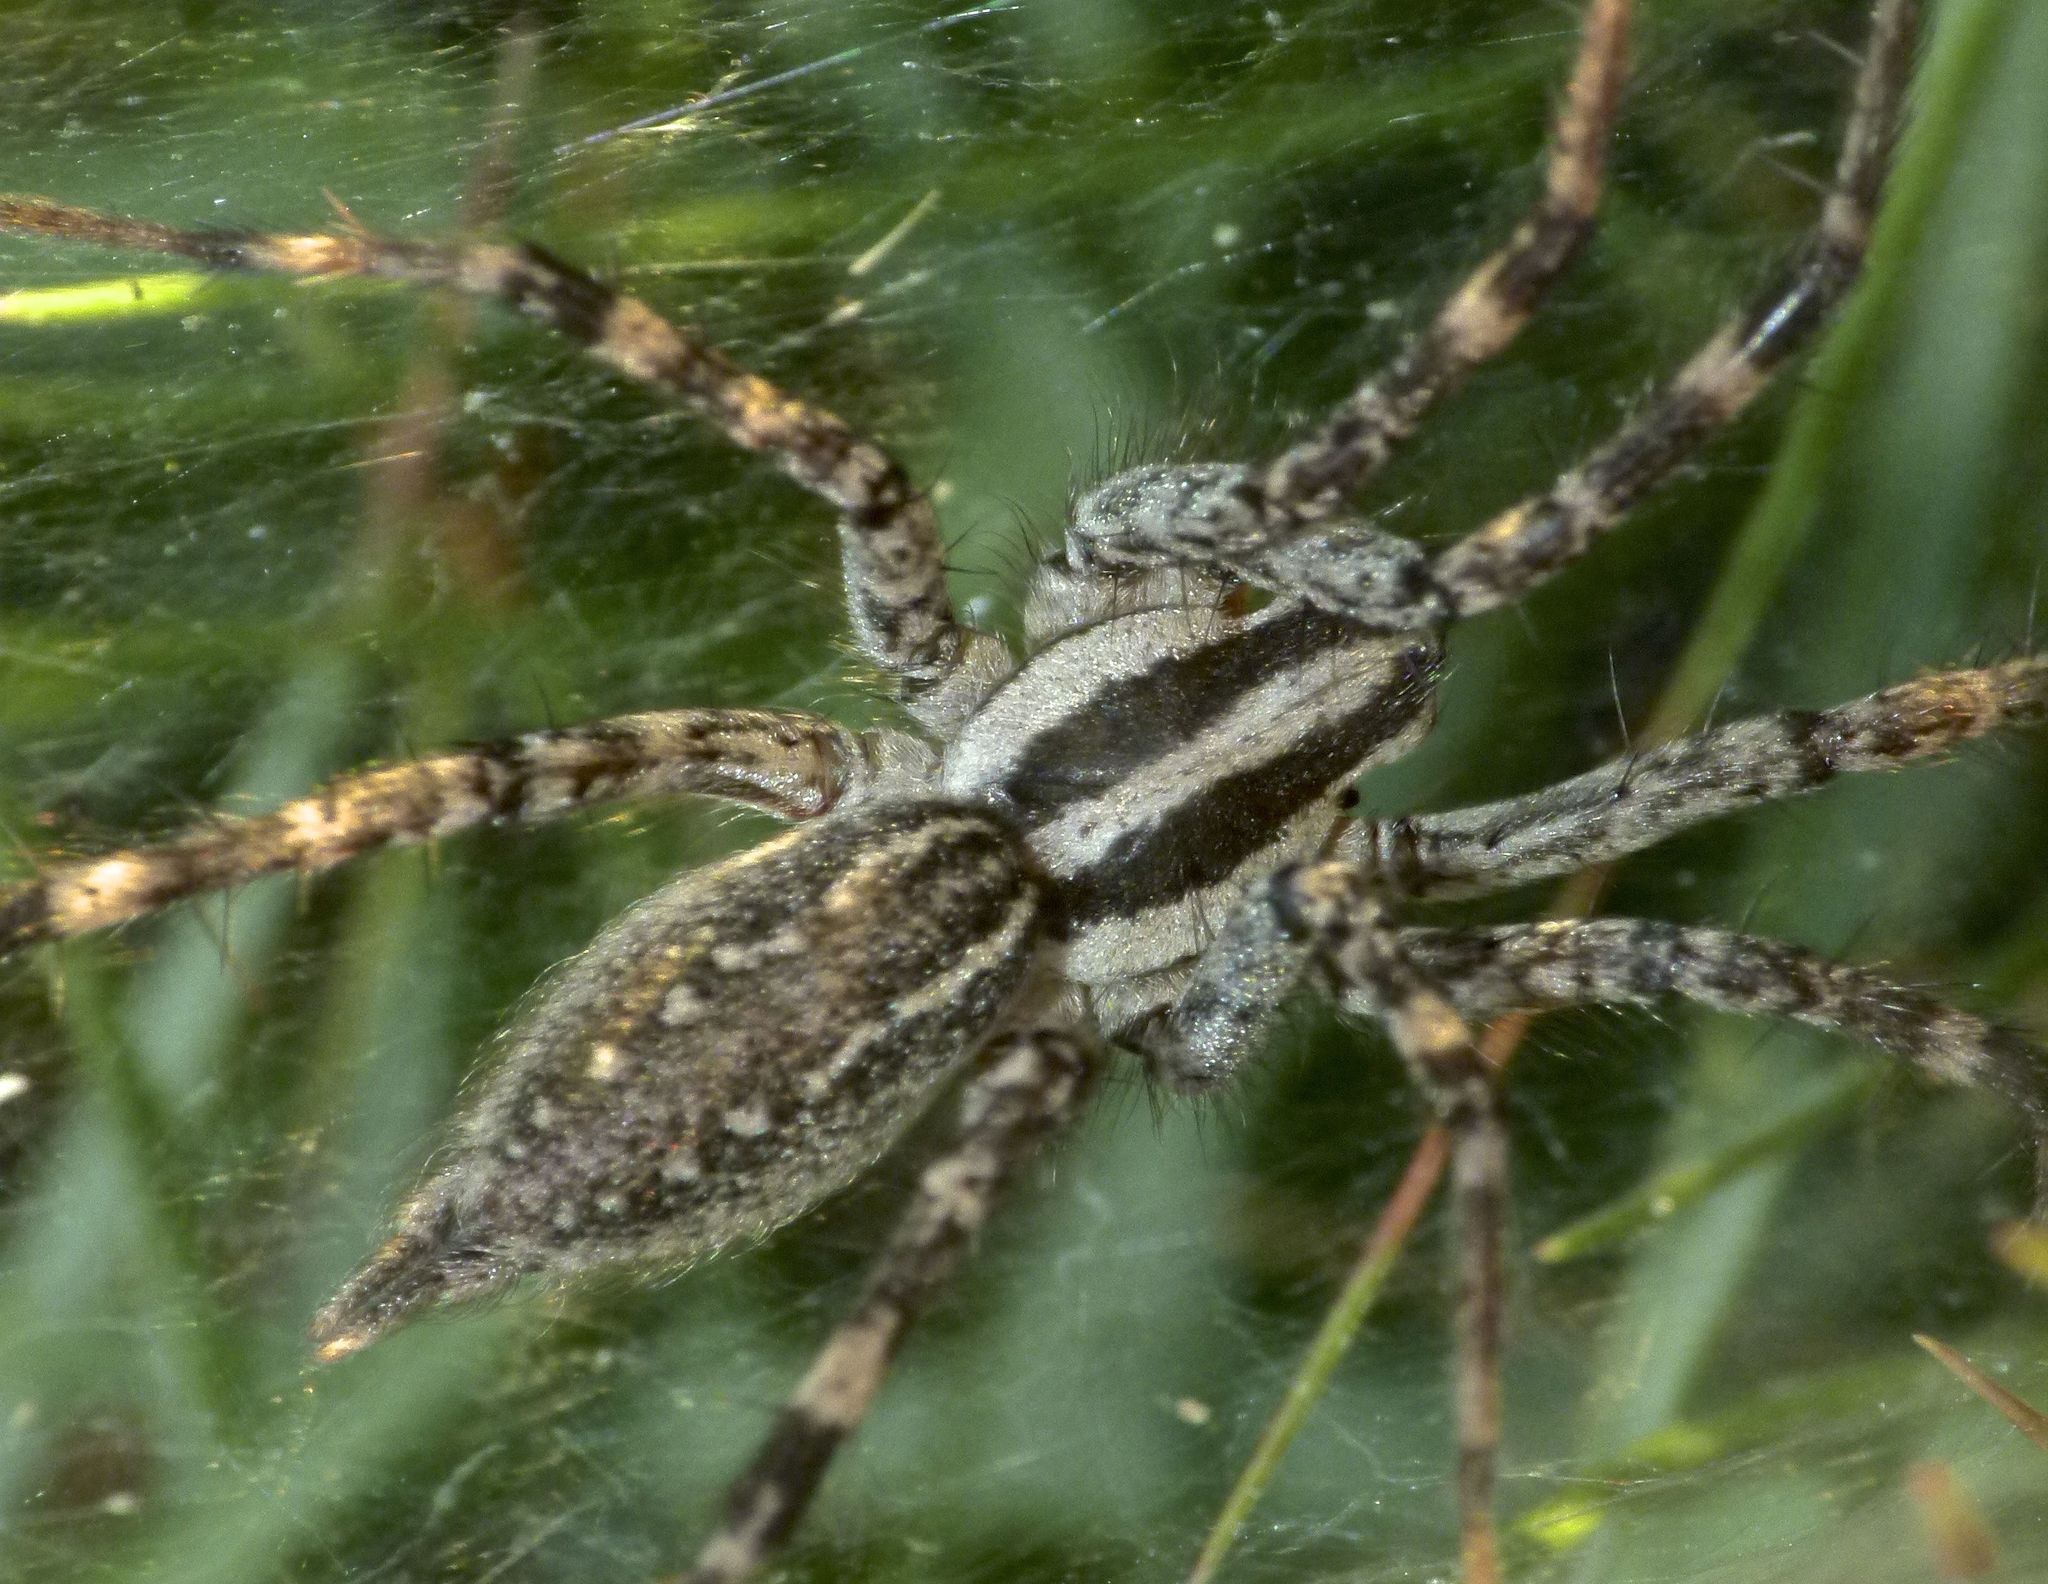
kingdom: Animalia
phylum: Arthropoda
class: Arachnida
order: Araneae
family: Agelenidae
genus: Agelenopsis
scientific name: Agelenopsis
